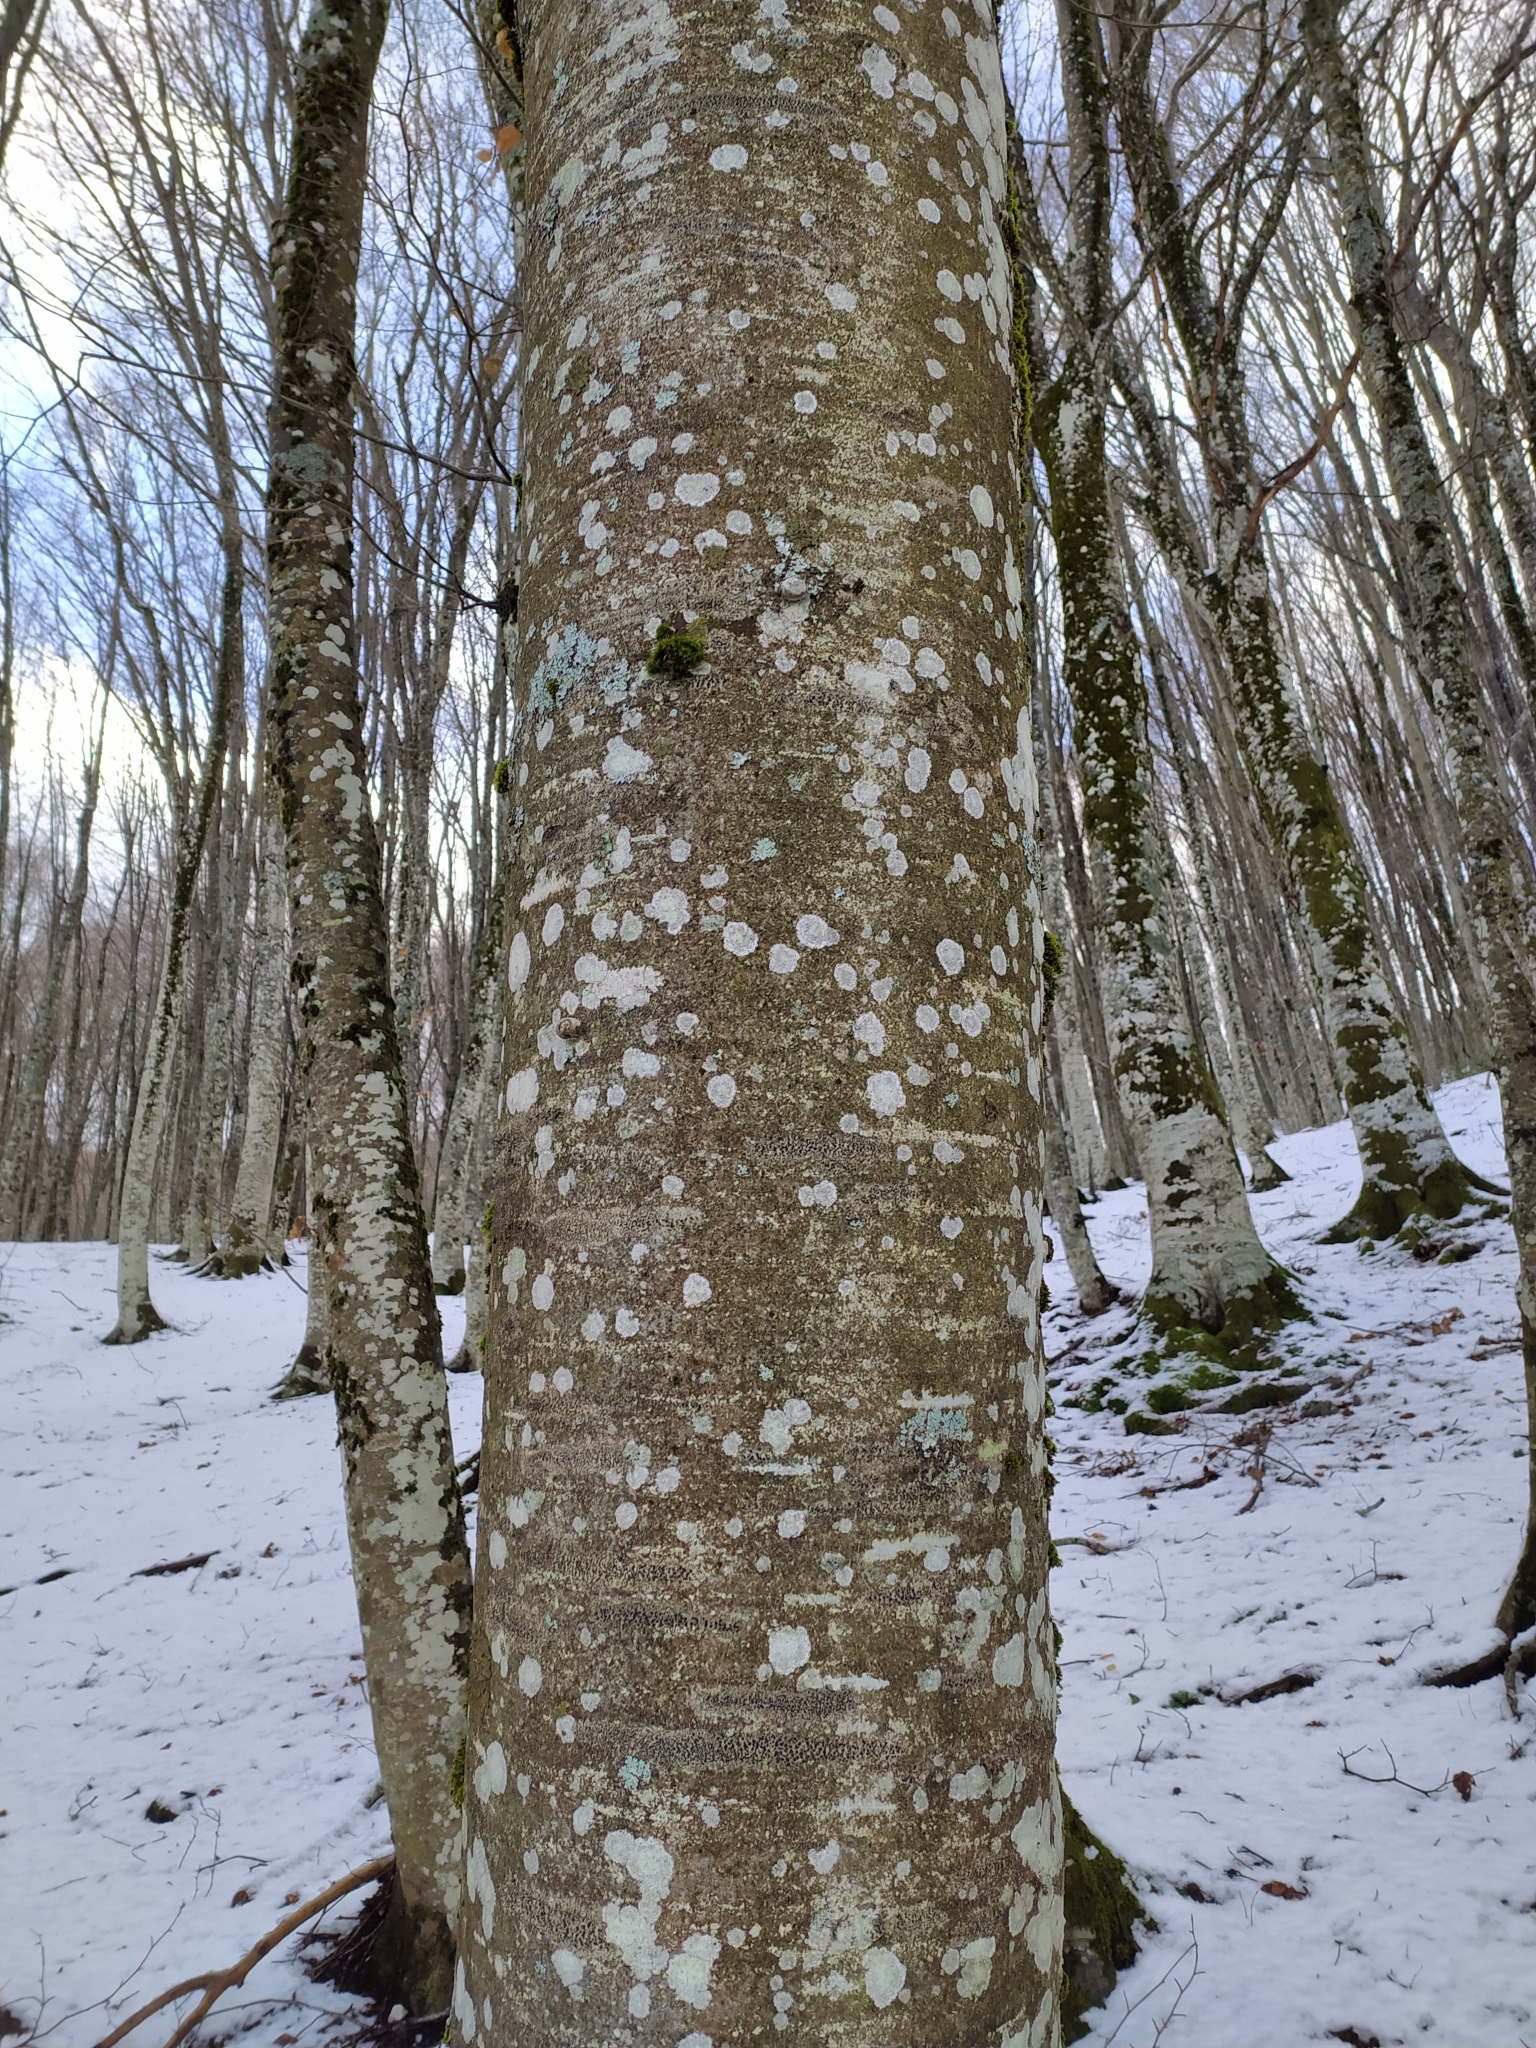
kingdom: Plantae
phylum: Tracheophyta
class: Magnoliopsida
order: Fagales
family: Fagaceae
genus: Fagus
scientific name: Fagus sylvatica
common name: Beech
